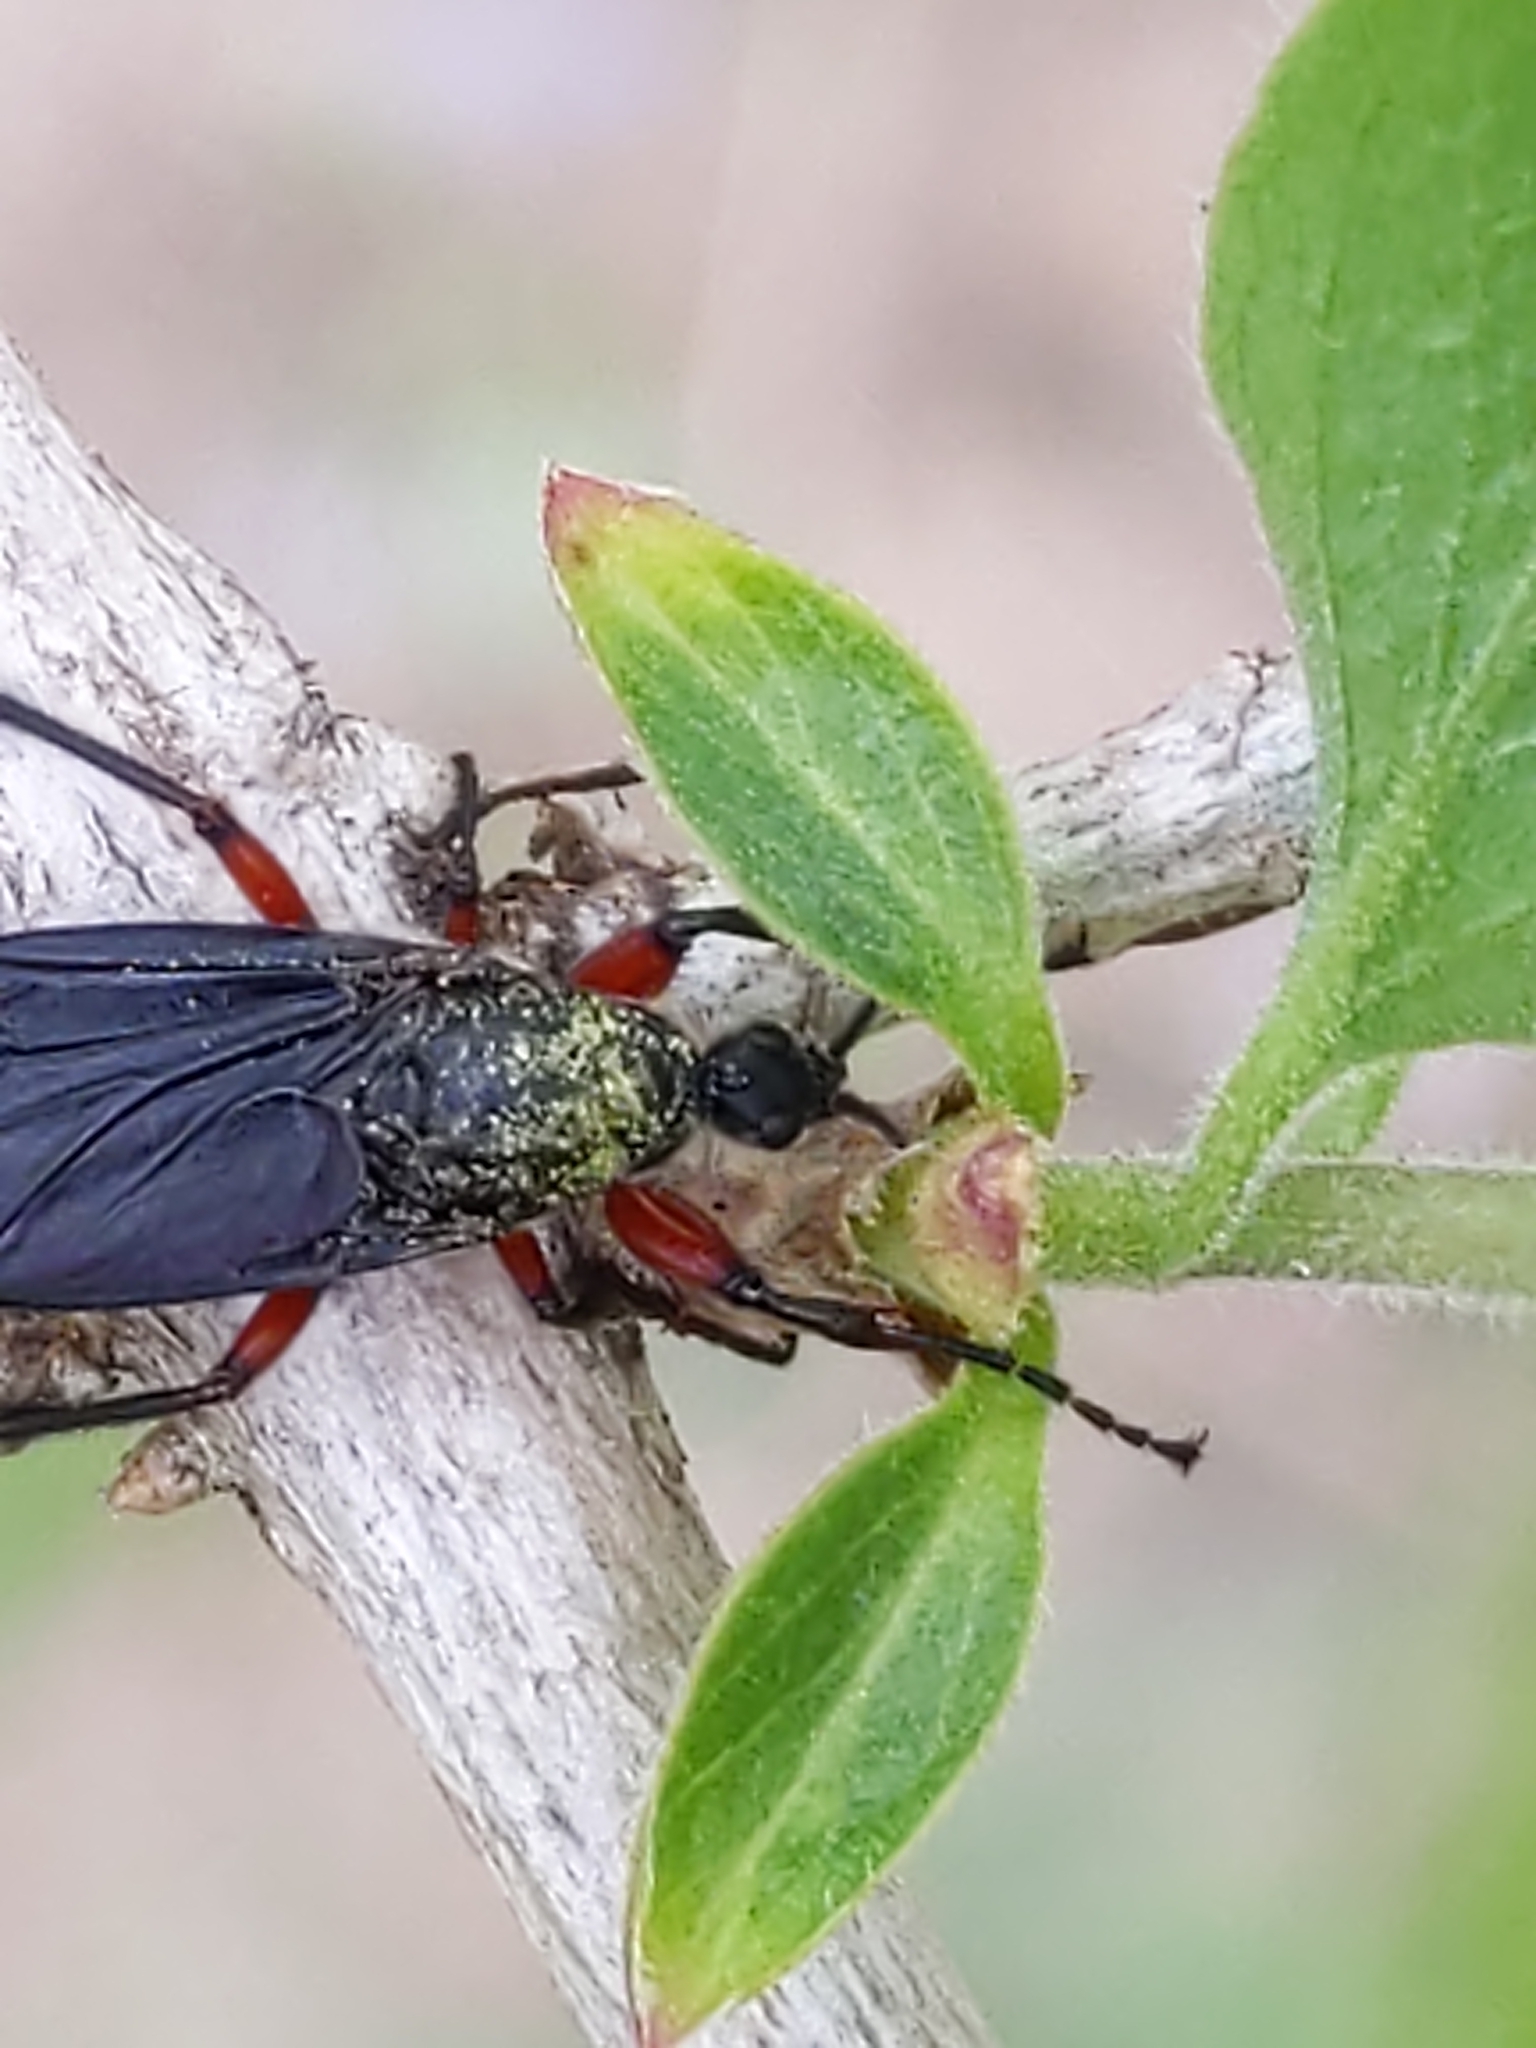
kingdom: Animalia
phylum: Arthropoda
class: Insecta
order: Diptera
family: Bibionidae
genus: Bibio
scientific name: Bibio femoratus
